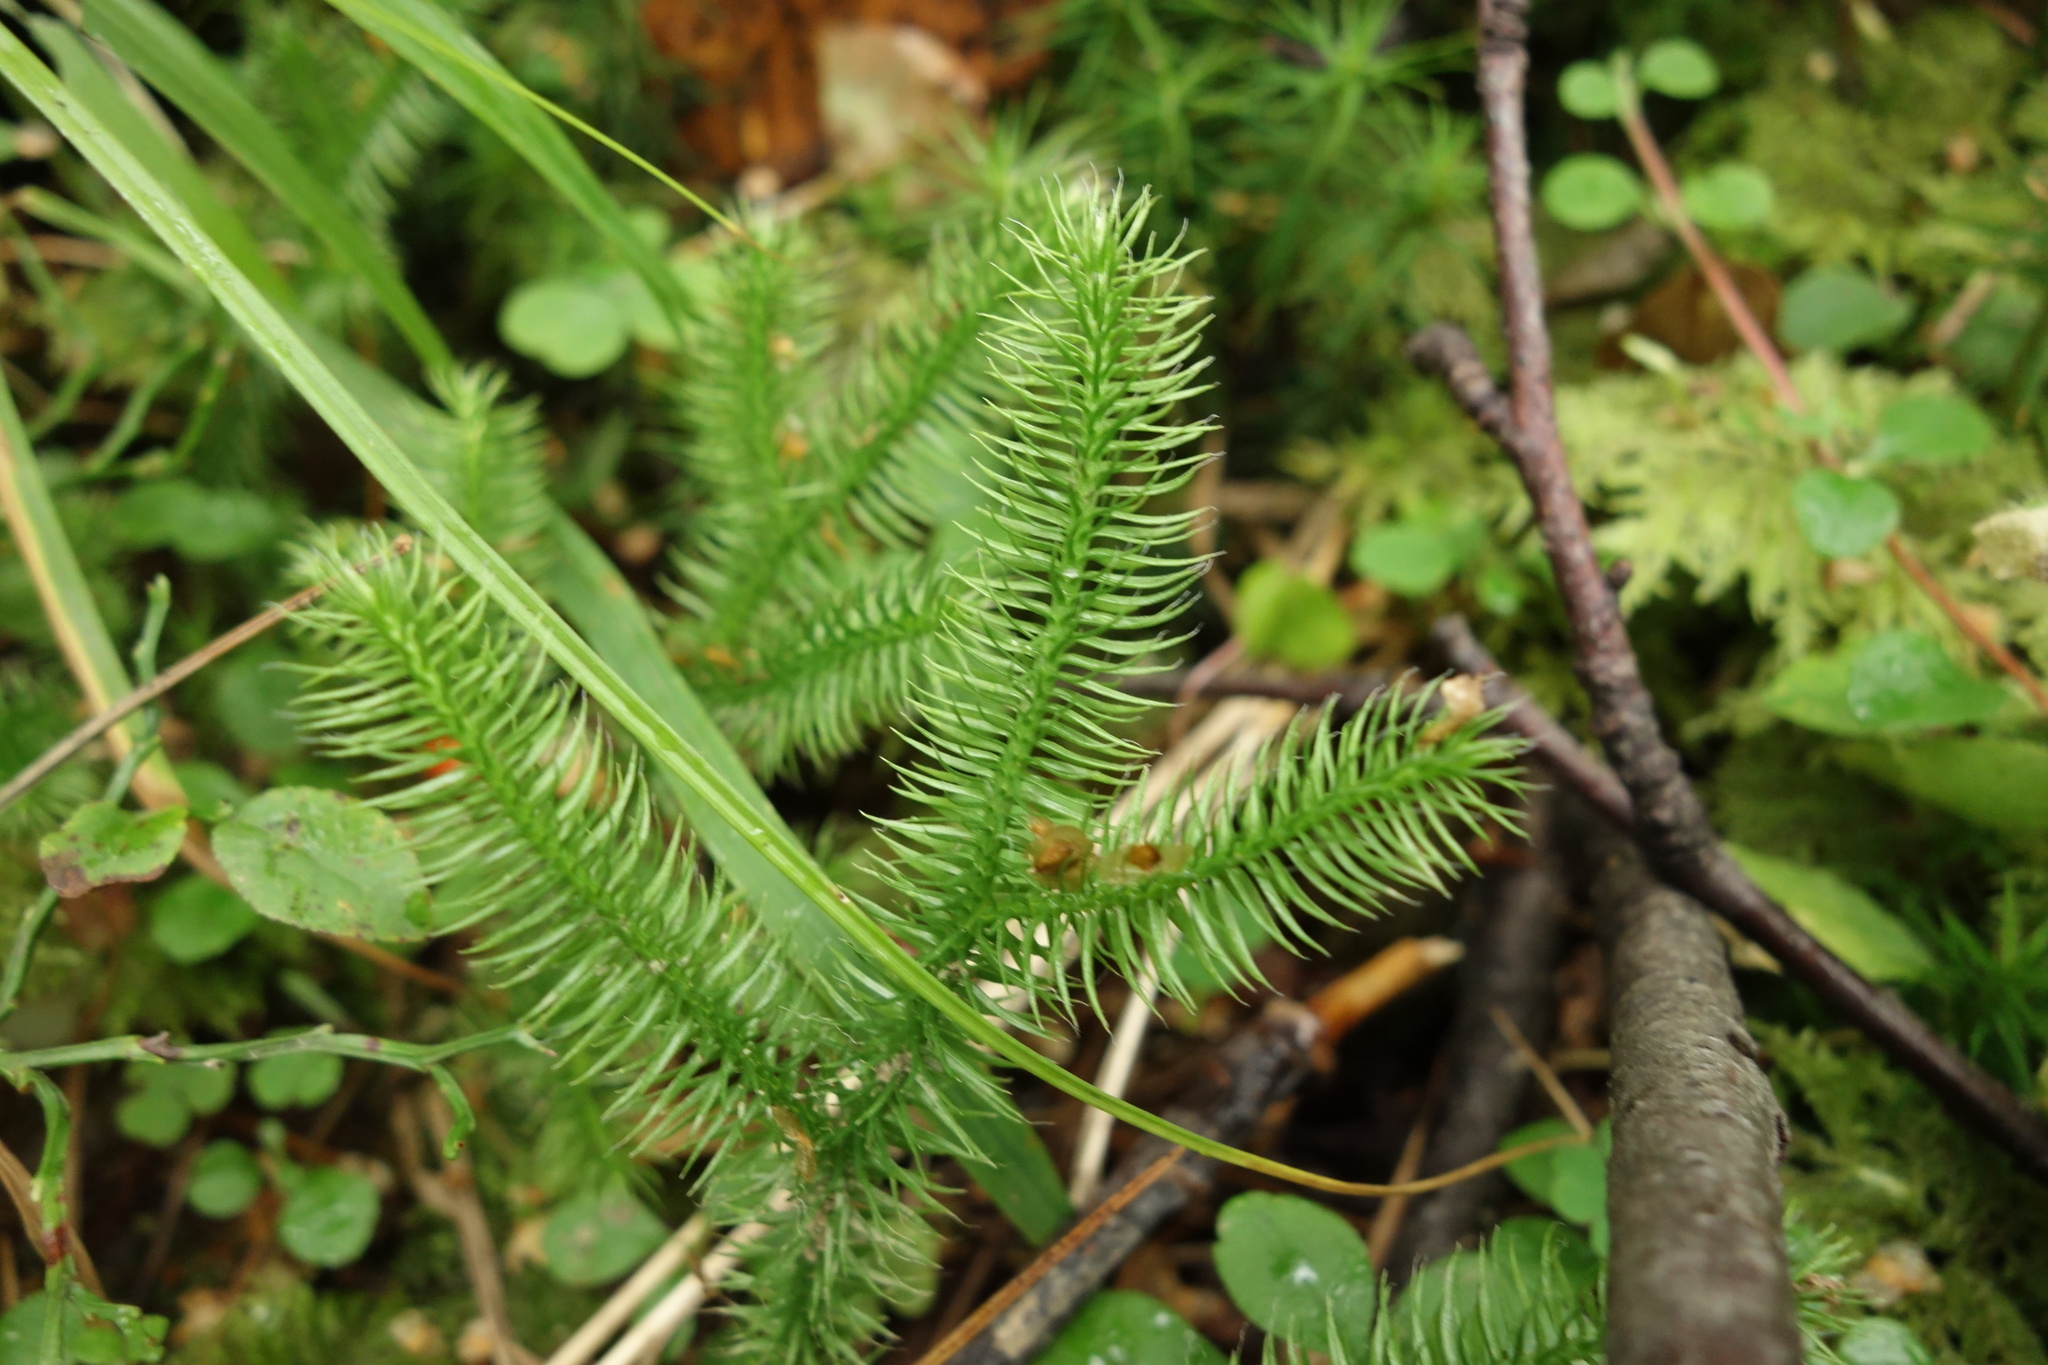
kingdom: Plantae
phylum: Tracheophyta
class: Lycopodiopsida
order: Lycopodiales
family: Lycopodiaceae
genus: Lycopodium
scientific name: Lycopodium clavatum
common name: Stag's-horn clubmoss
